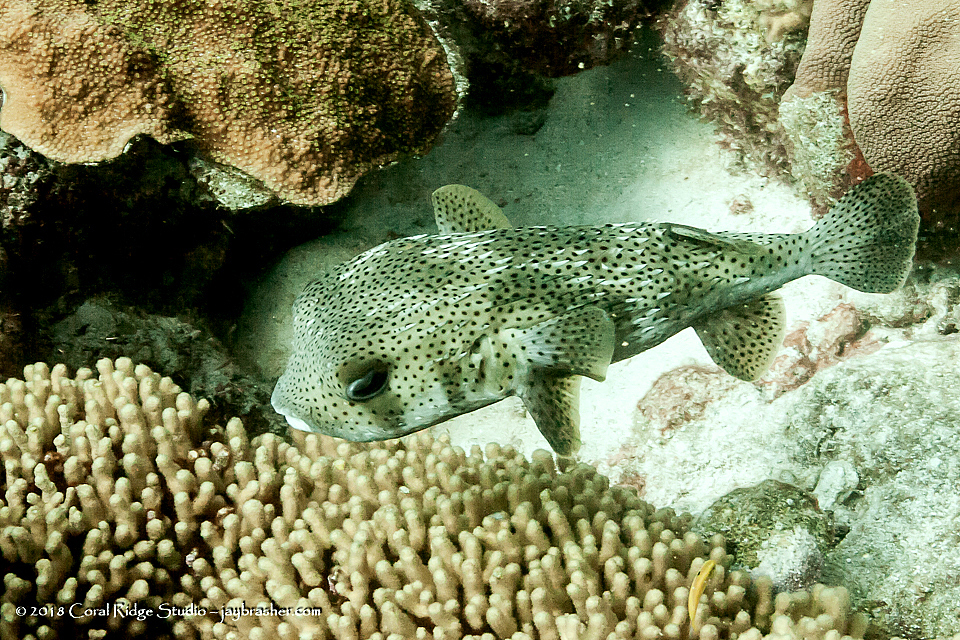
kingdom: Animalia
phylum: Chordata
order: Tetraodontiformes
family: Diodontidae
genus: Diodon
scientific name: Diodon hystrix
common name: Giant porcupinefish
